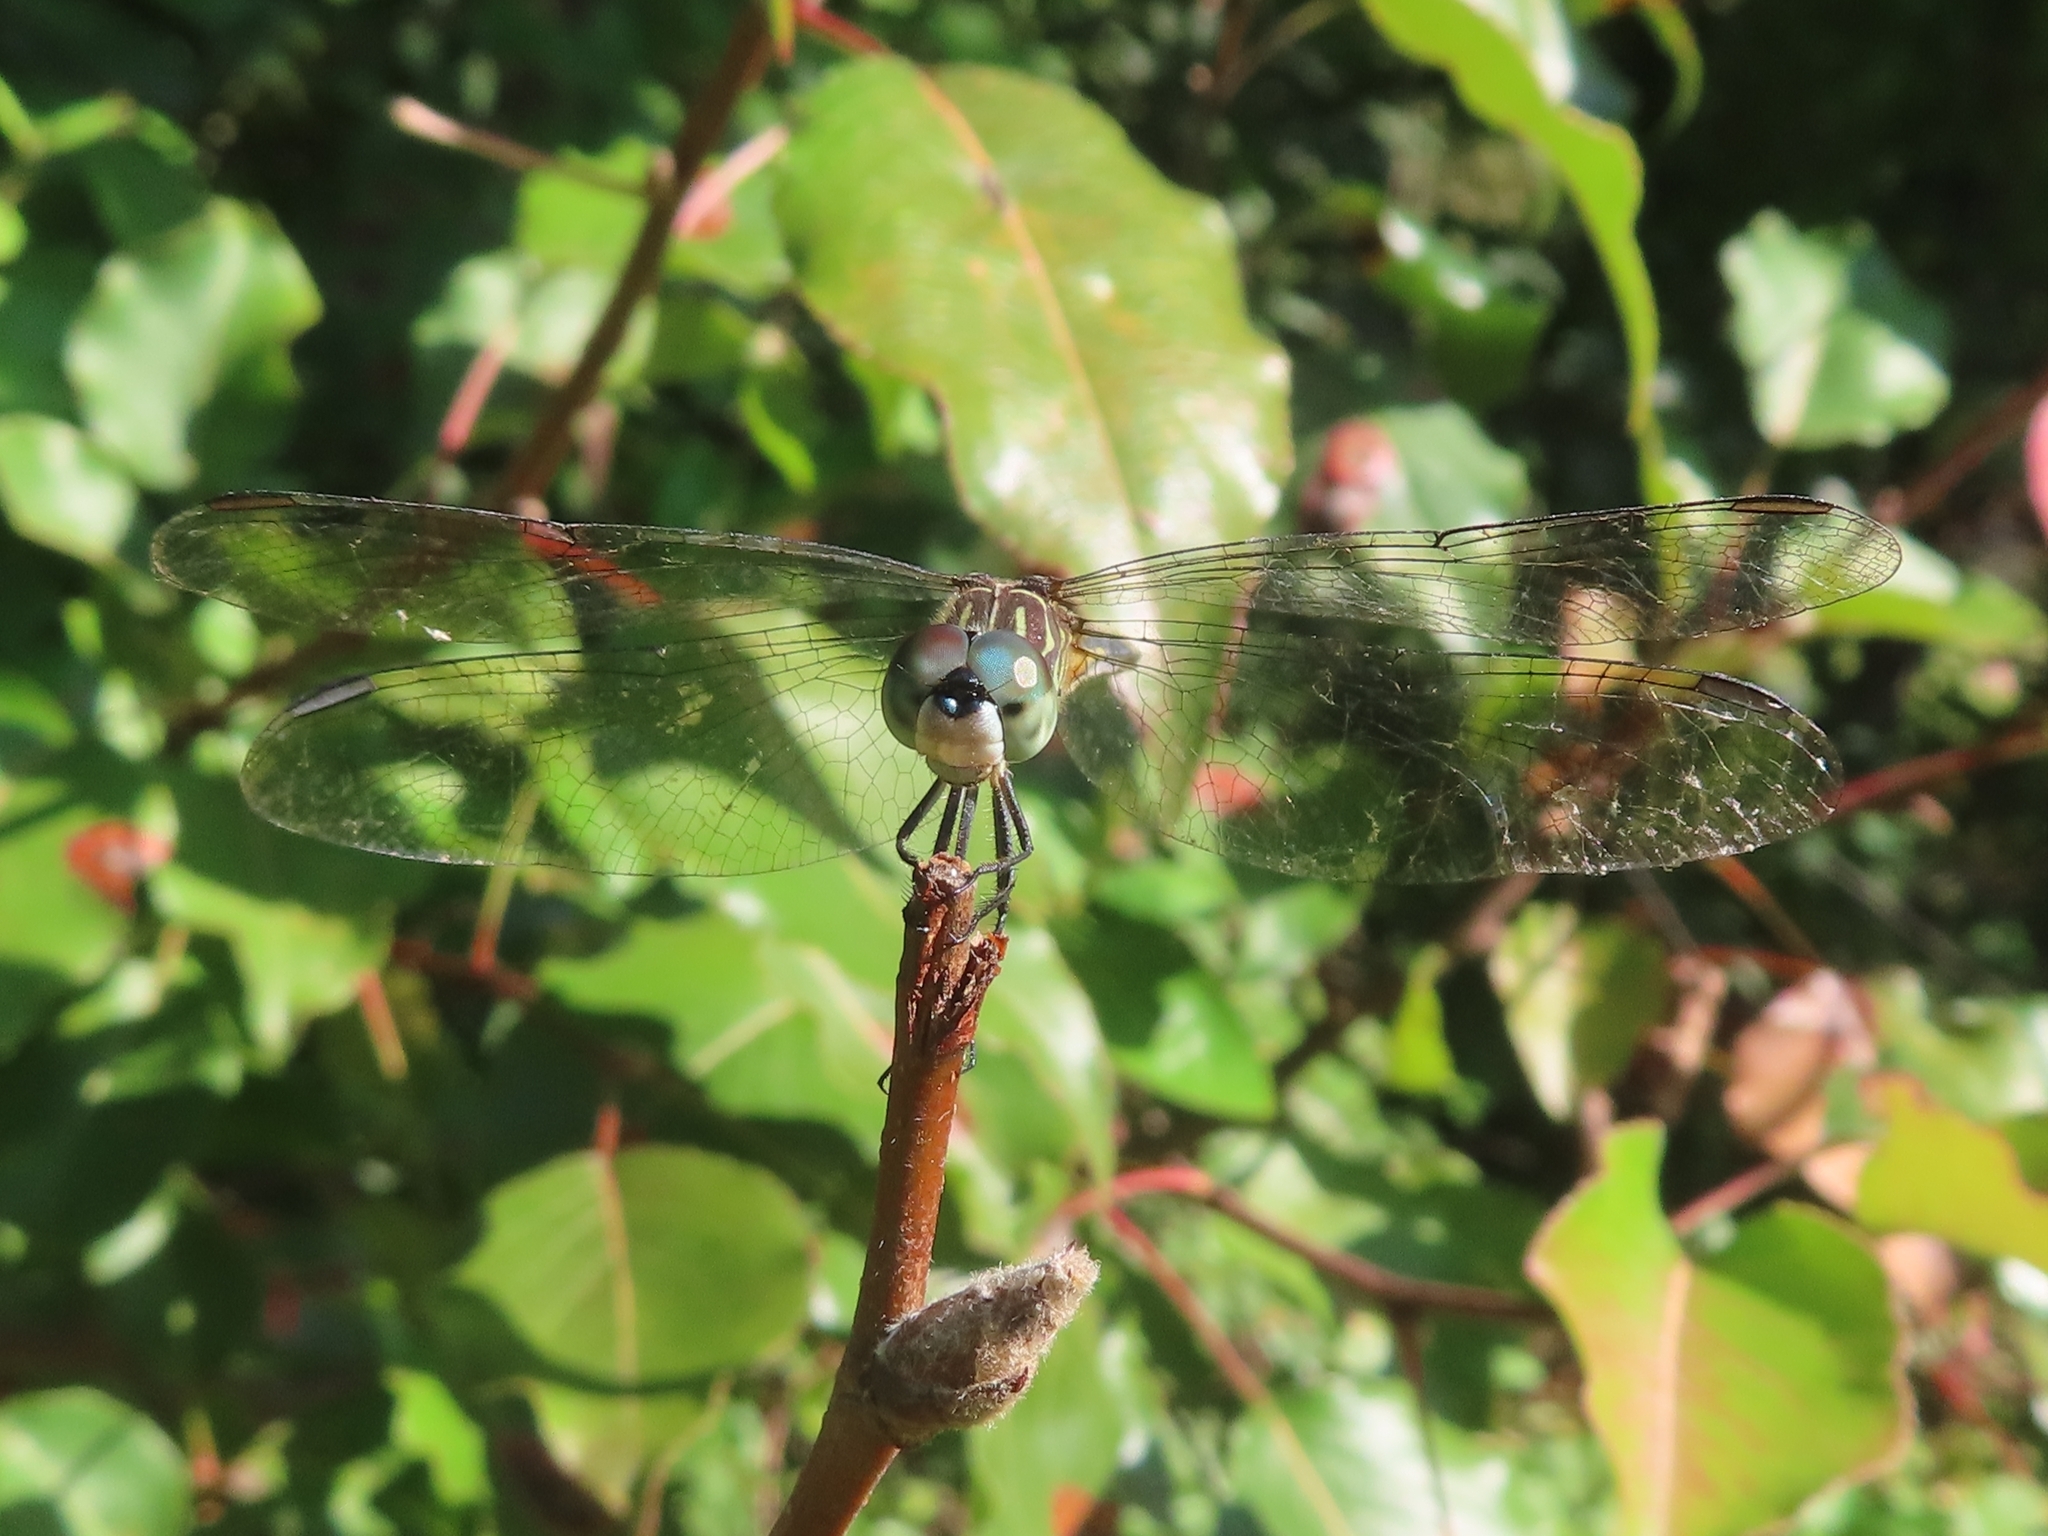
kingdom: Animalia
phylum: Arthropoda
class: Insecta
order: Odonata
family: Libellulidae
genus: Pachydiplax
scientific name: Pachydiplax longipennis
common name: Blue dasher
